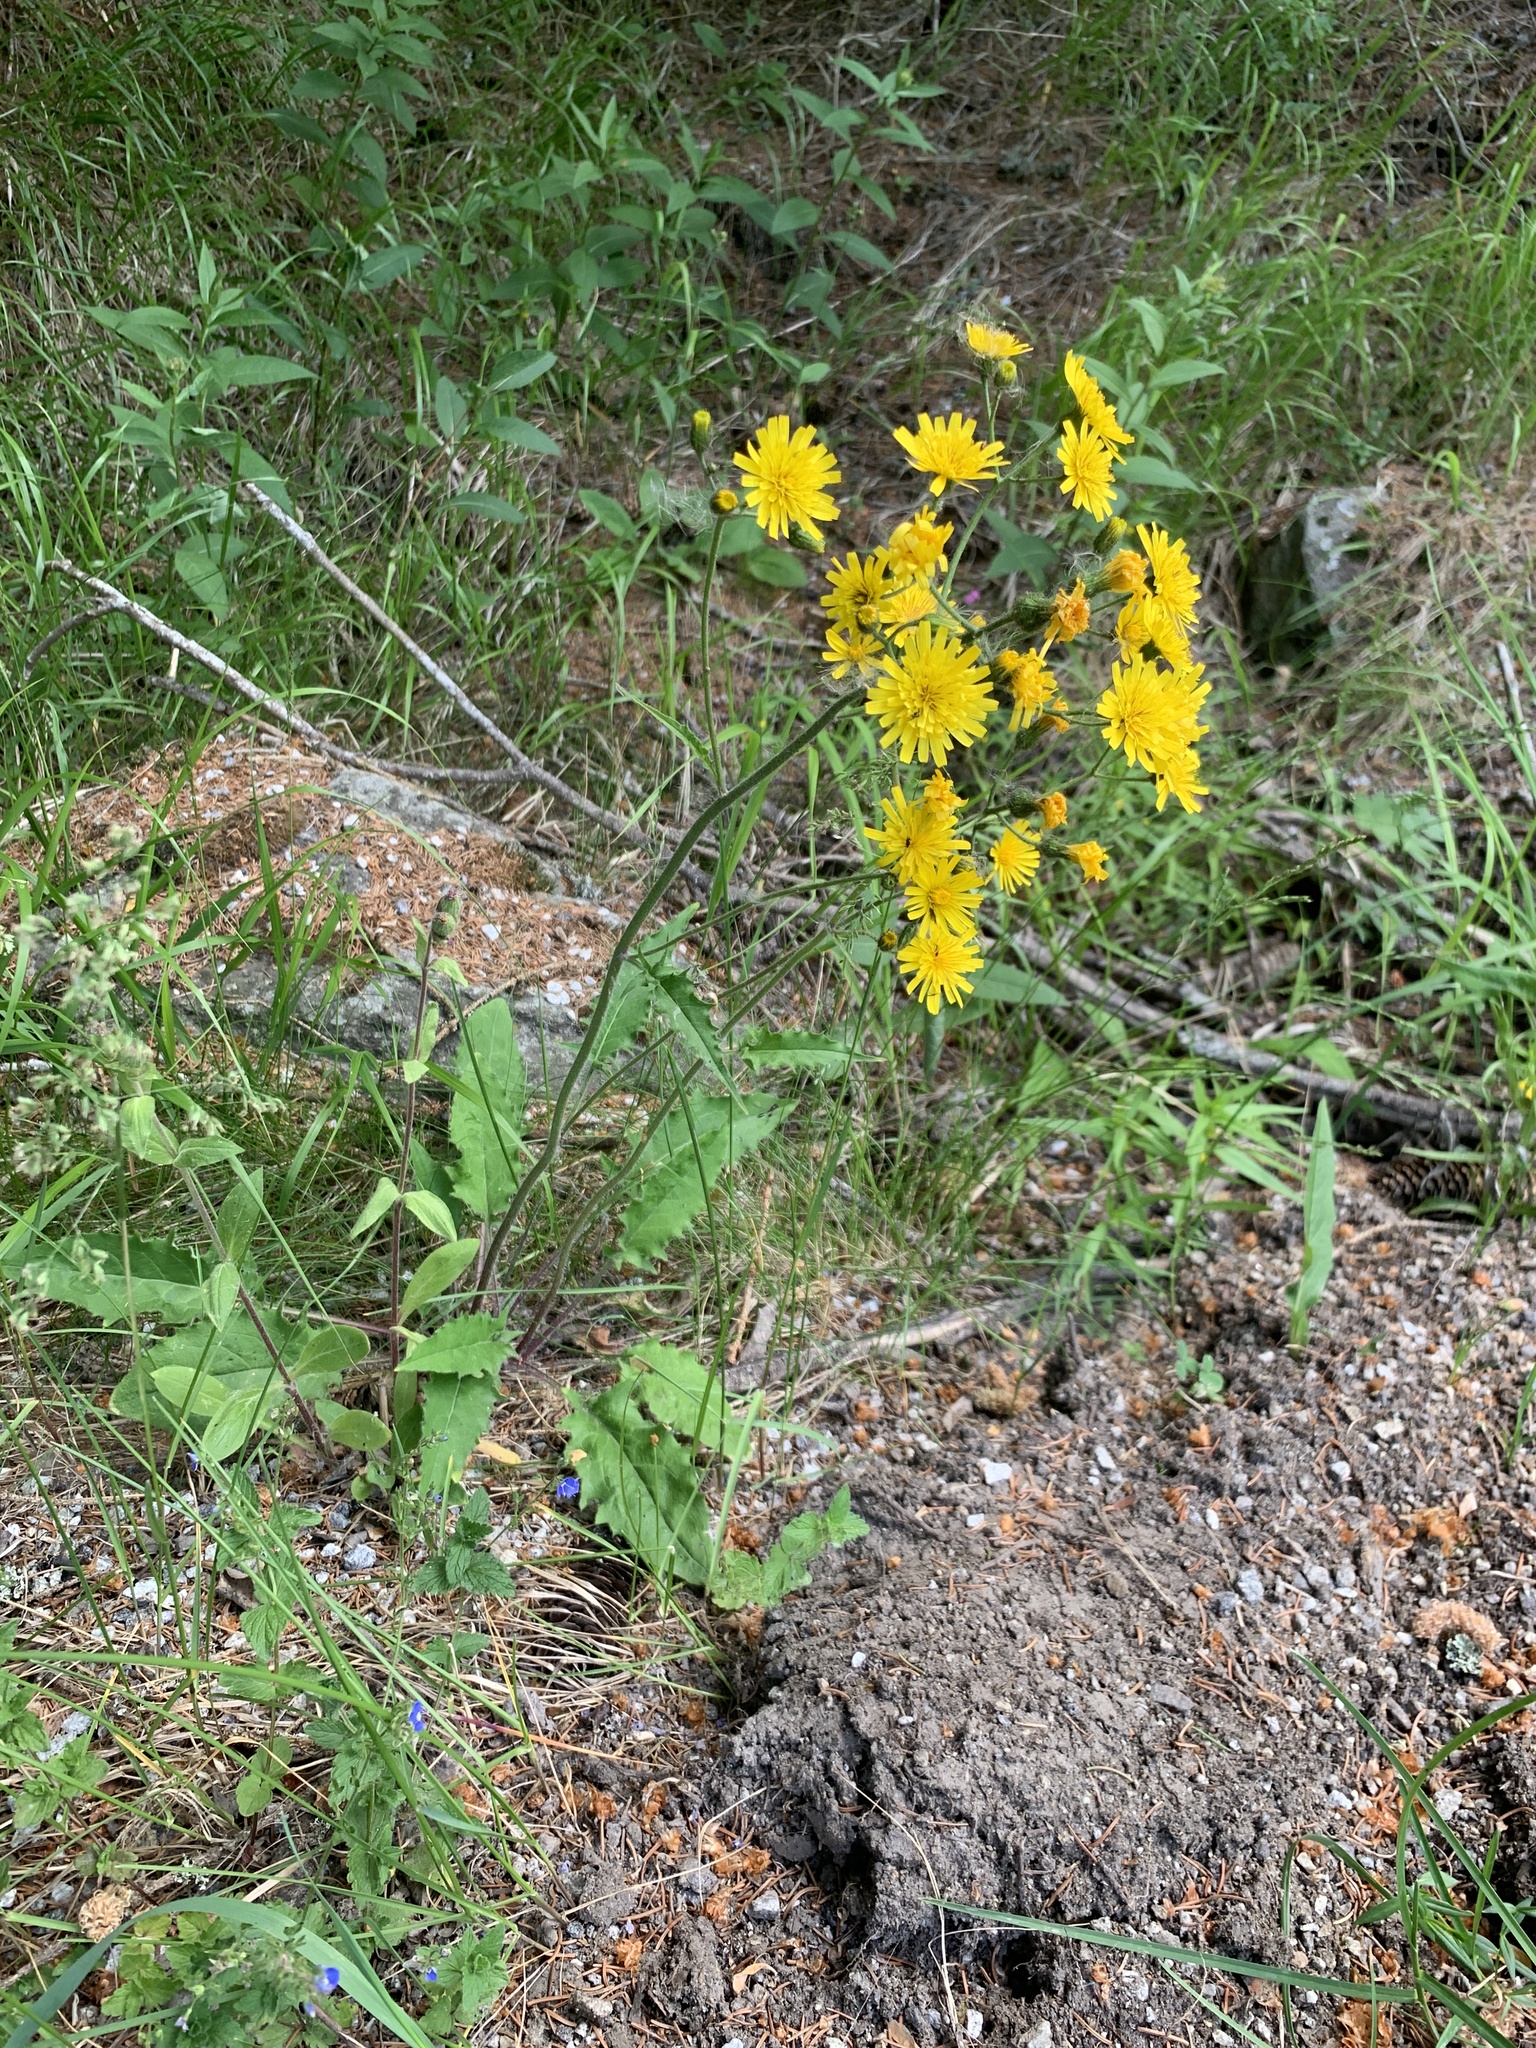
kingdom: Plantae
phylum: Tracheophyta
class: Magnoliopsida
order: Asterales
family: Asteraceae
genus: Hieracium
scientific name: Hieracium murorum
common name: Wall hawkweed
